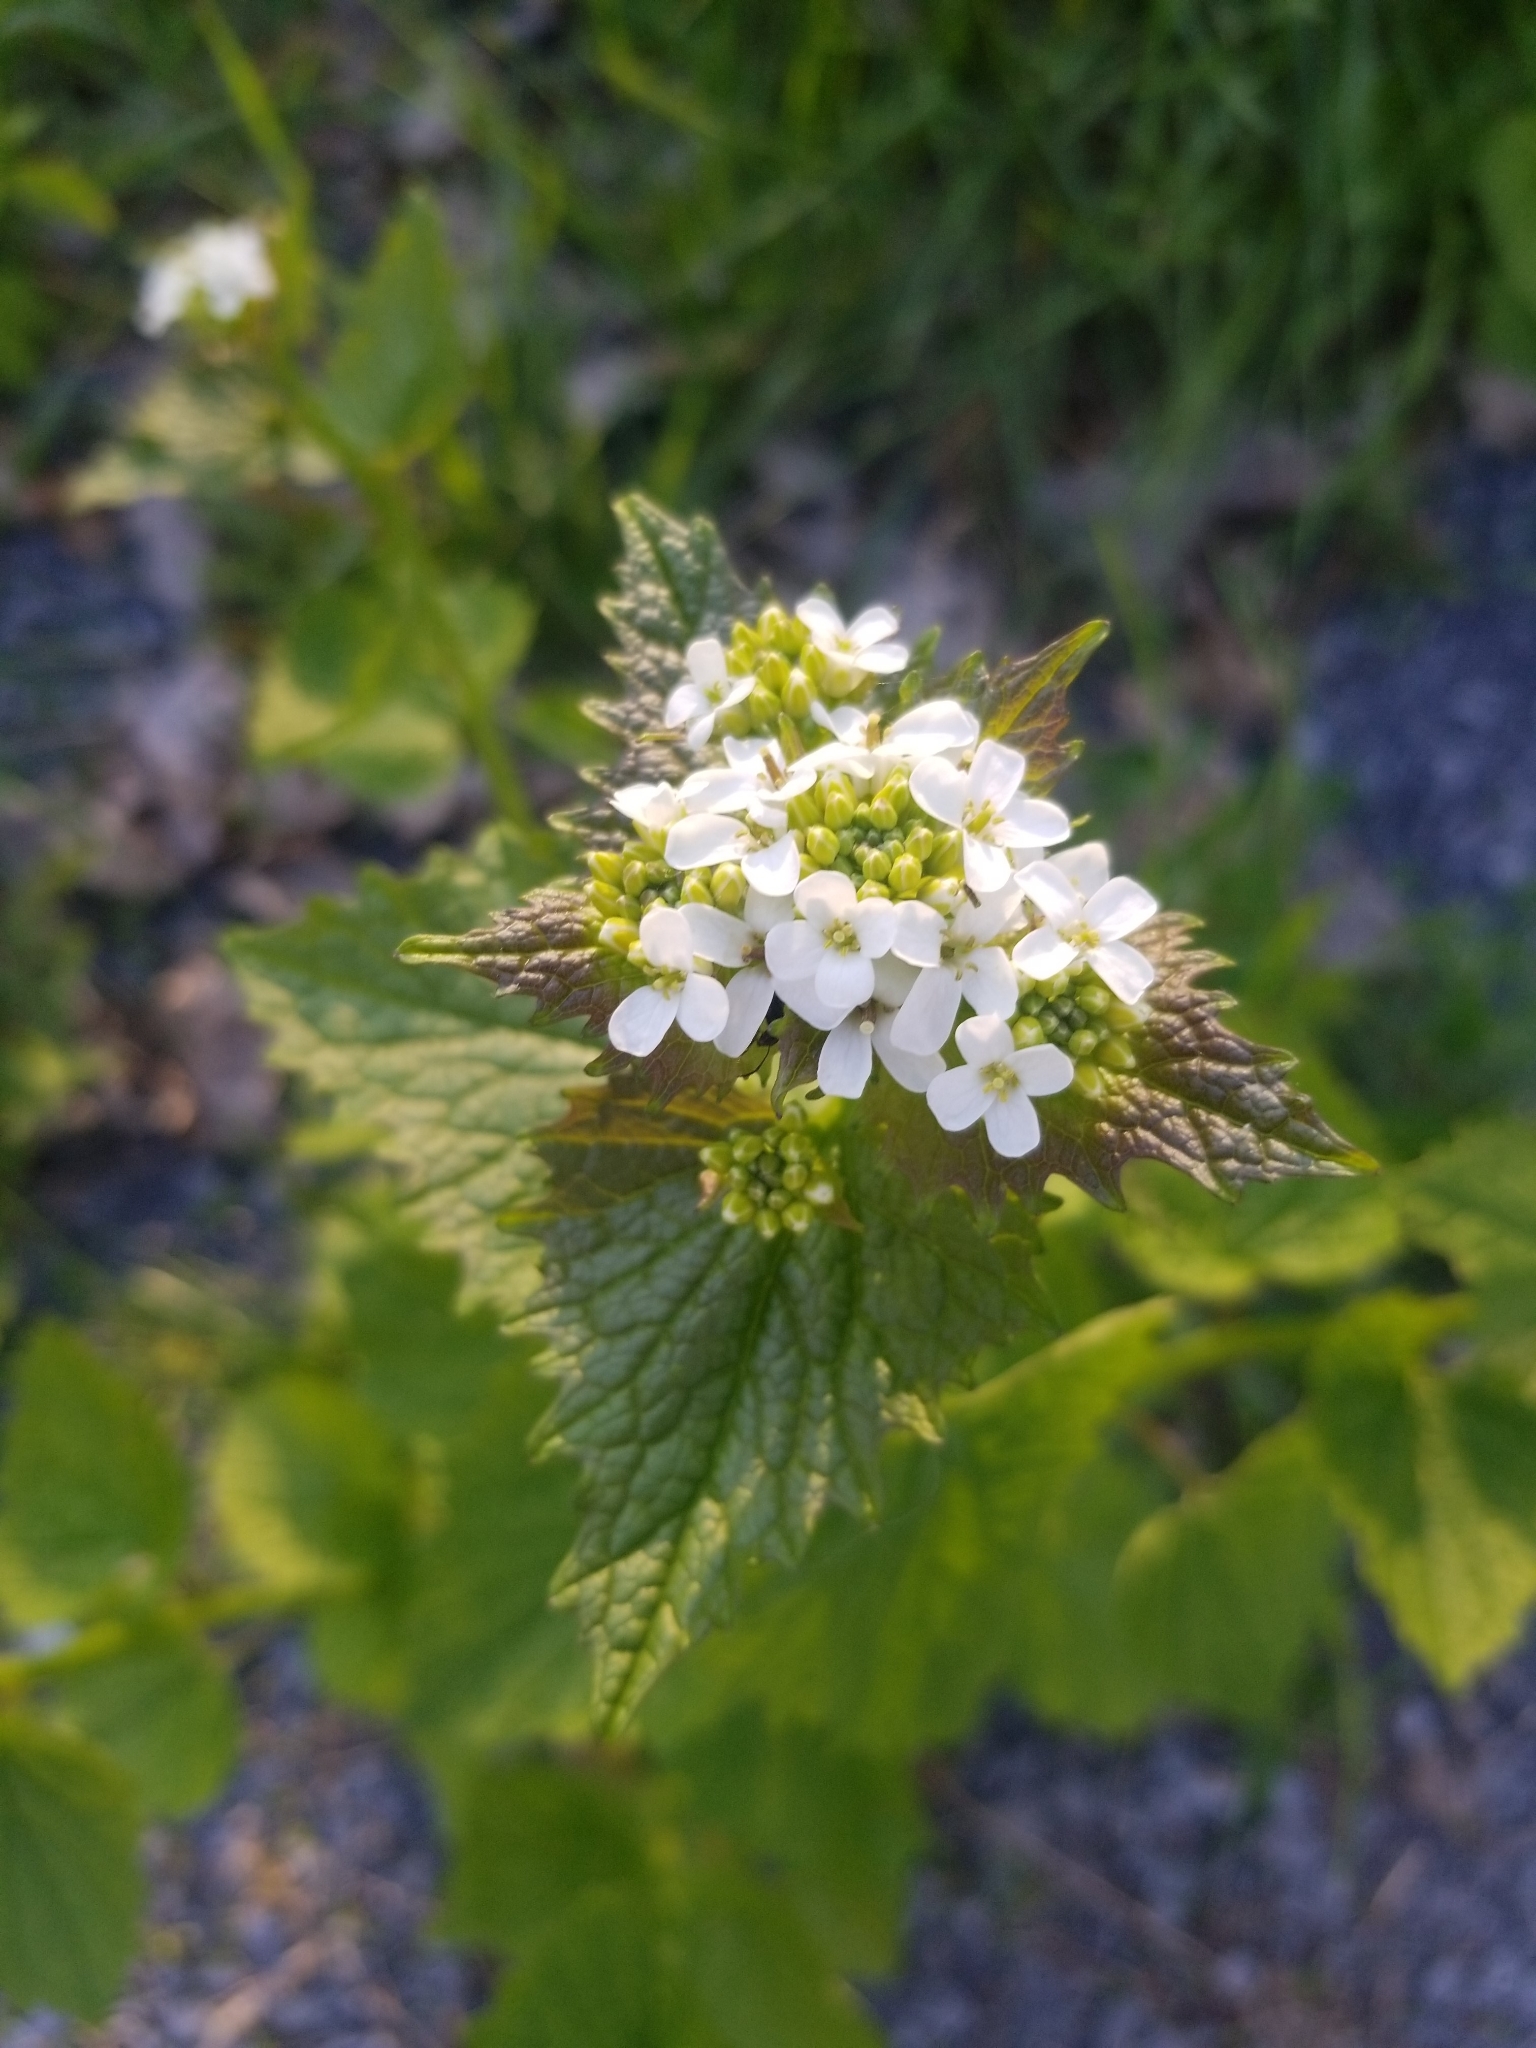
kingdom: Plantae
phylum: Tracheophyta
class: Magnoliopsida
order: Brassicales
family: Brassicaceae
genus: Alliaria
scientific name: Alliaria petiolata
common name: Garlic mustard
